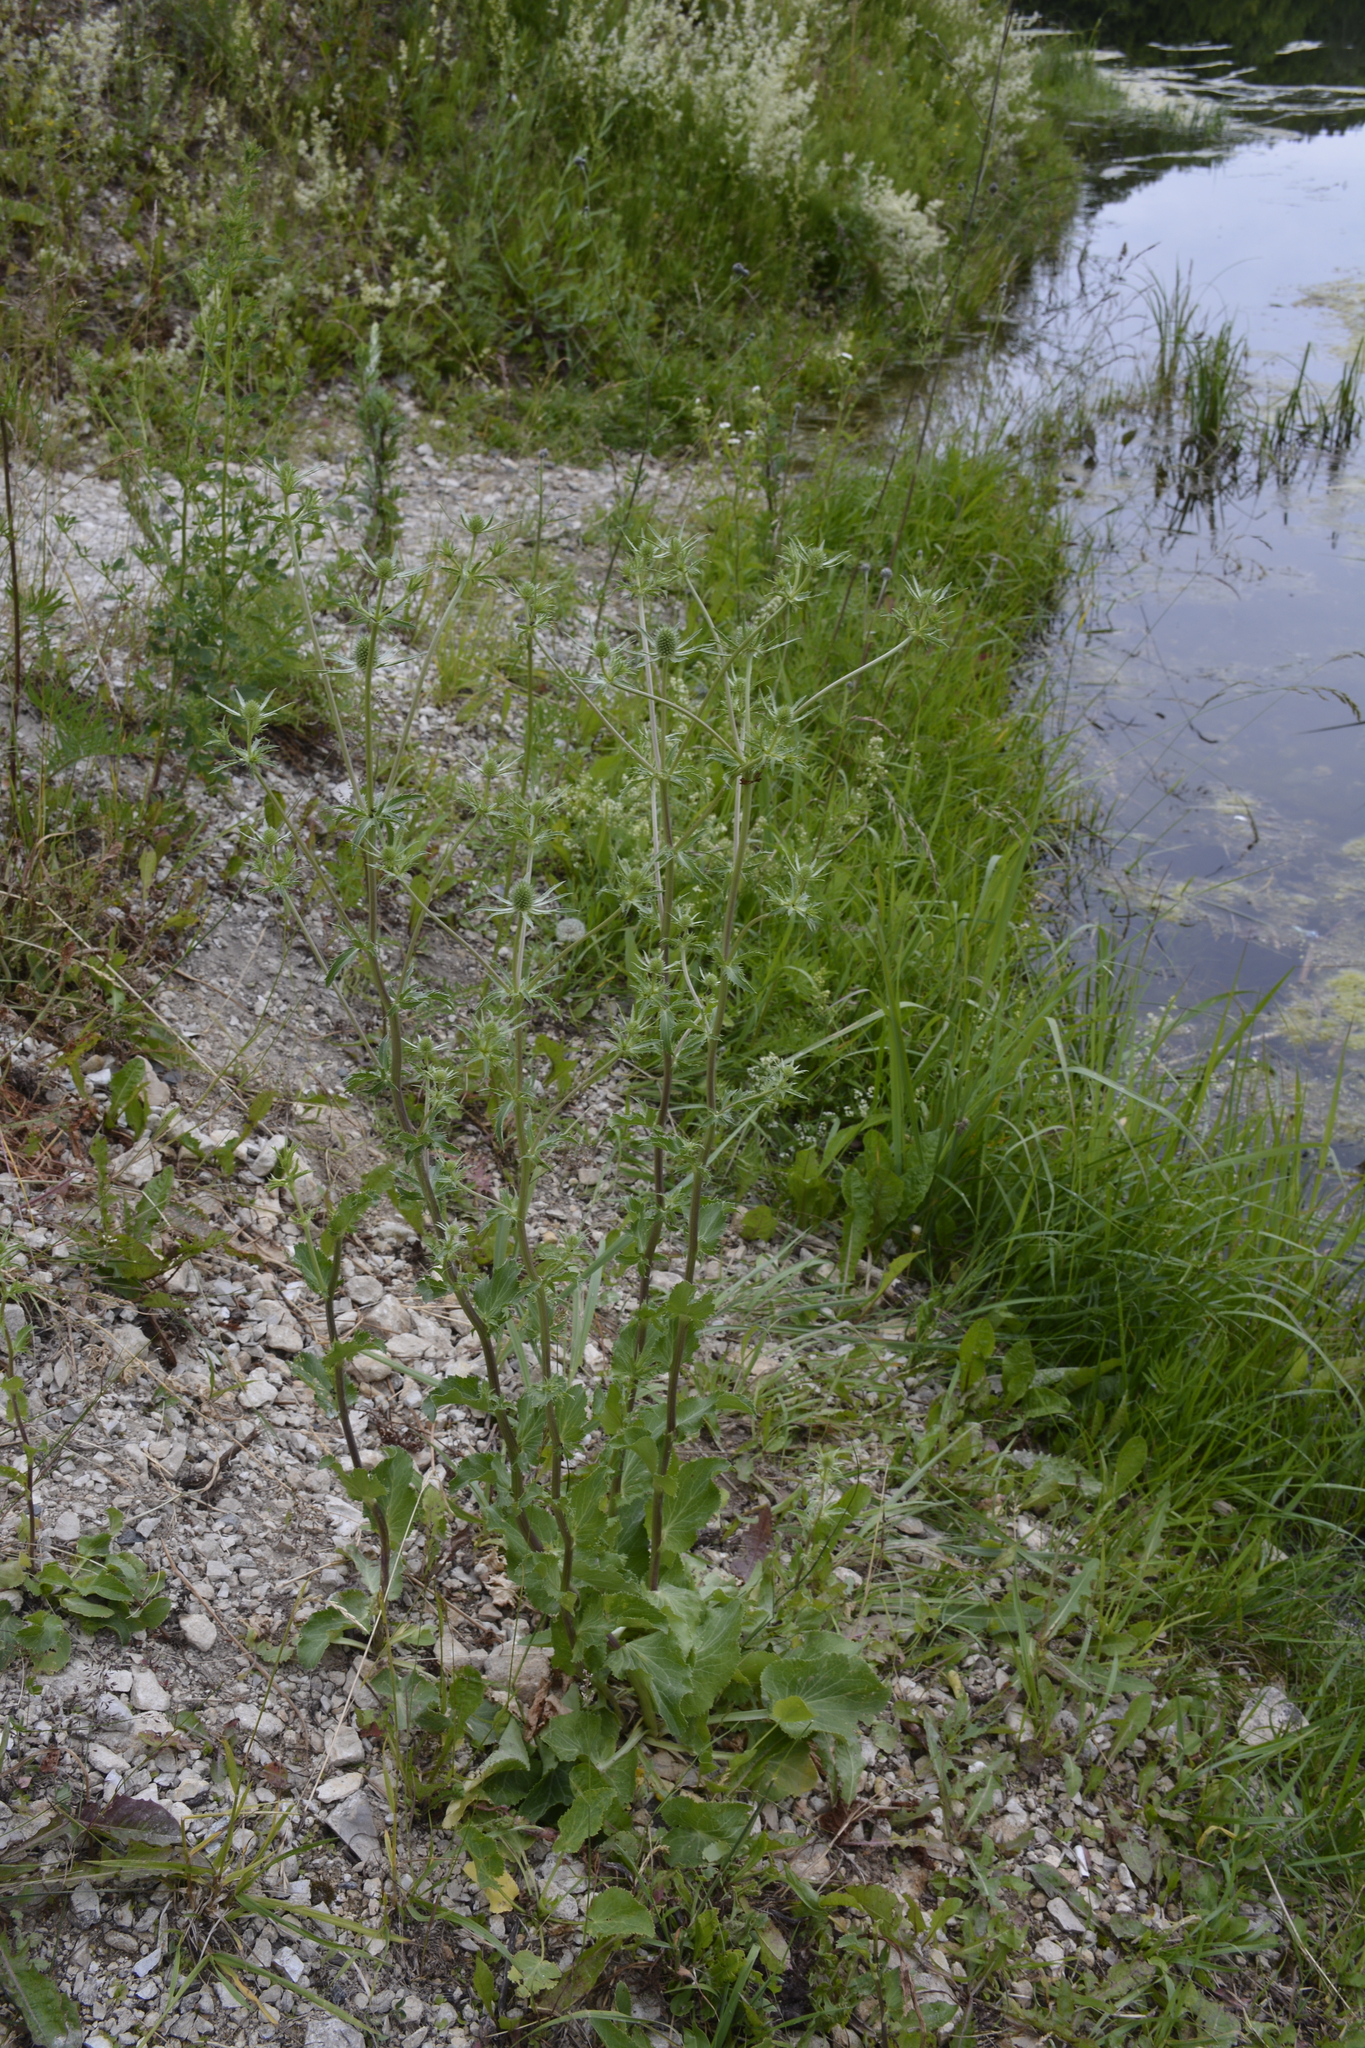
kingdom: Plantae
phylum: Tracheophyta
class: Magnoliopsida
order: Apiales
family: Apiaceae
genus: Eryngium
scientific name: Eryngium planum
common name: Blue eryngo
